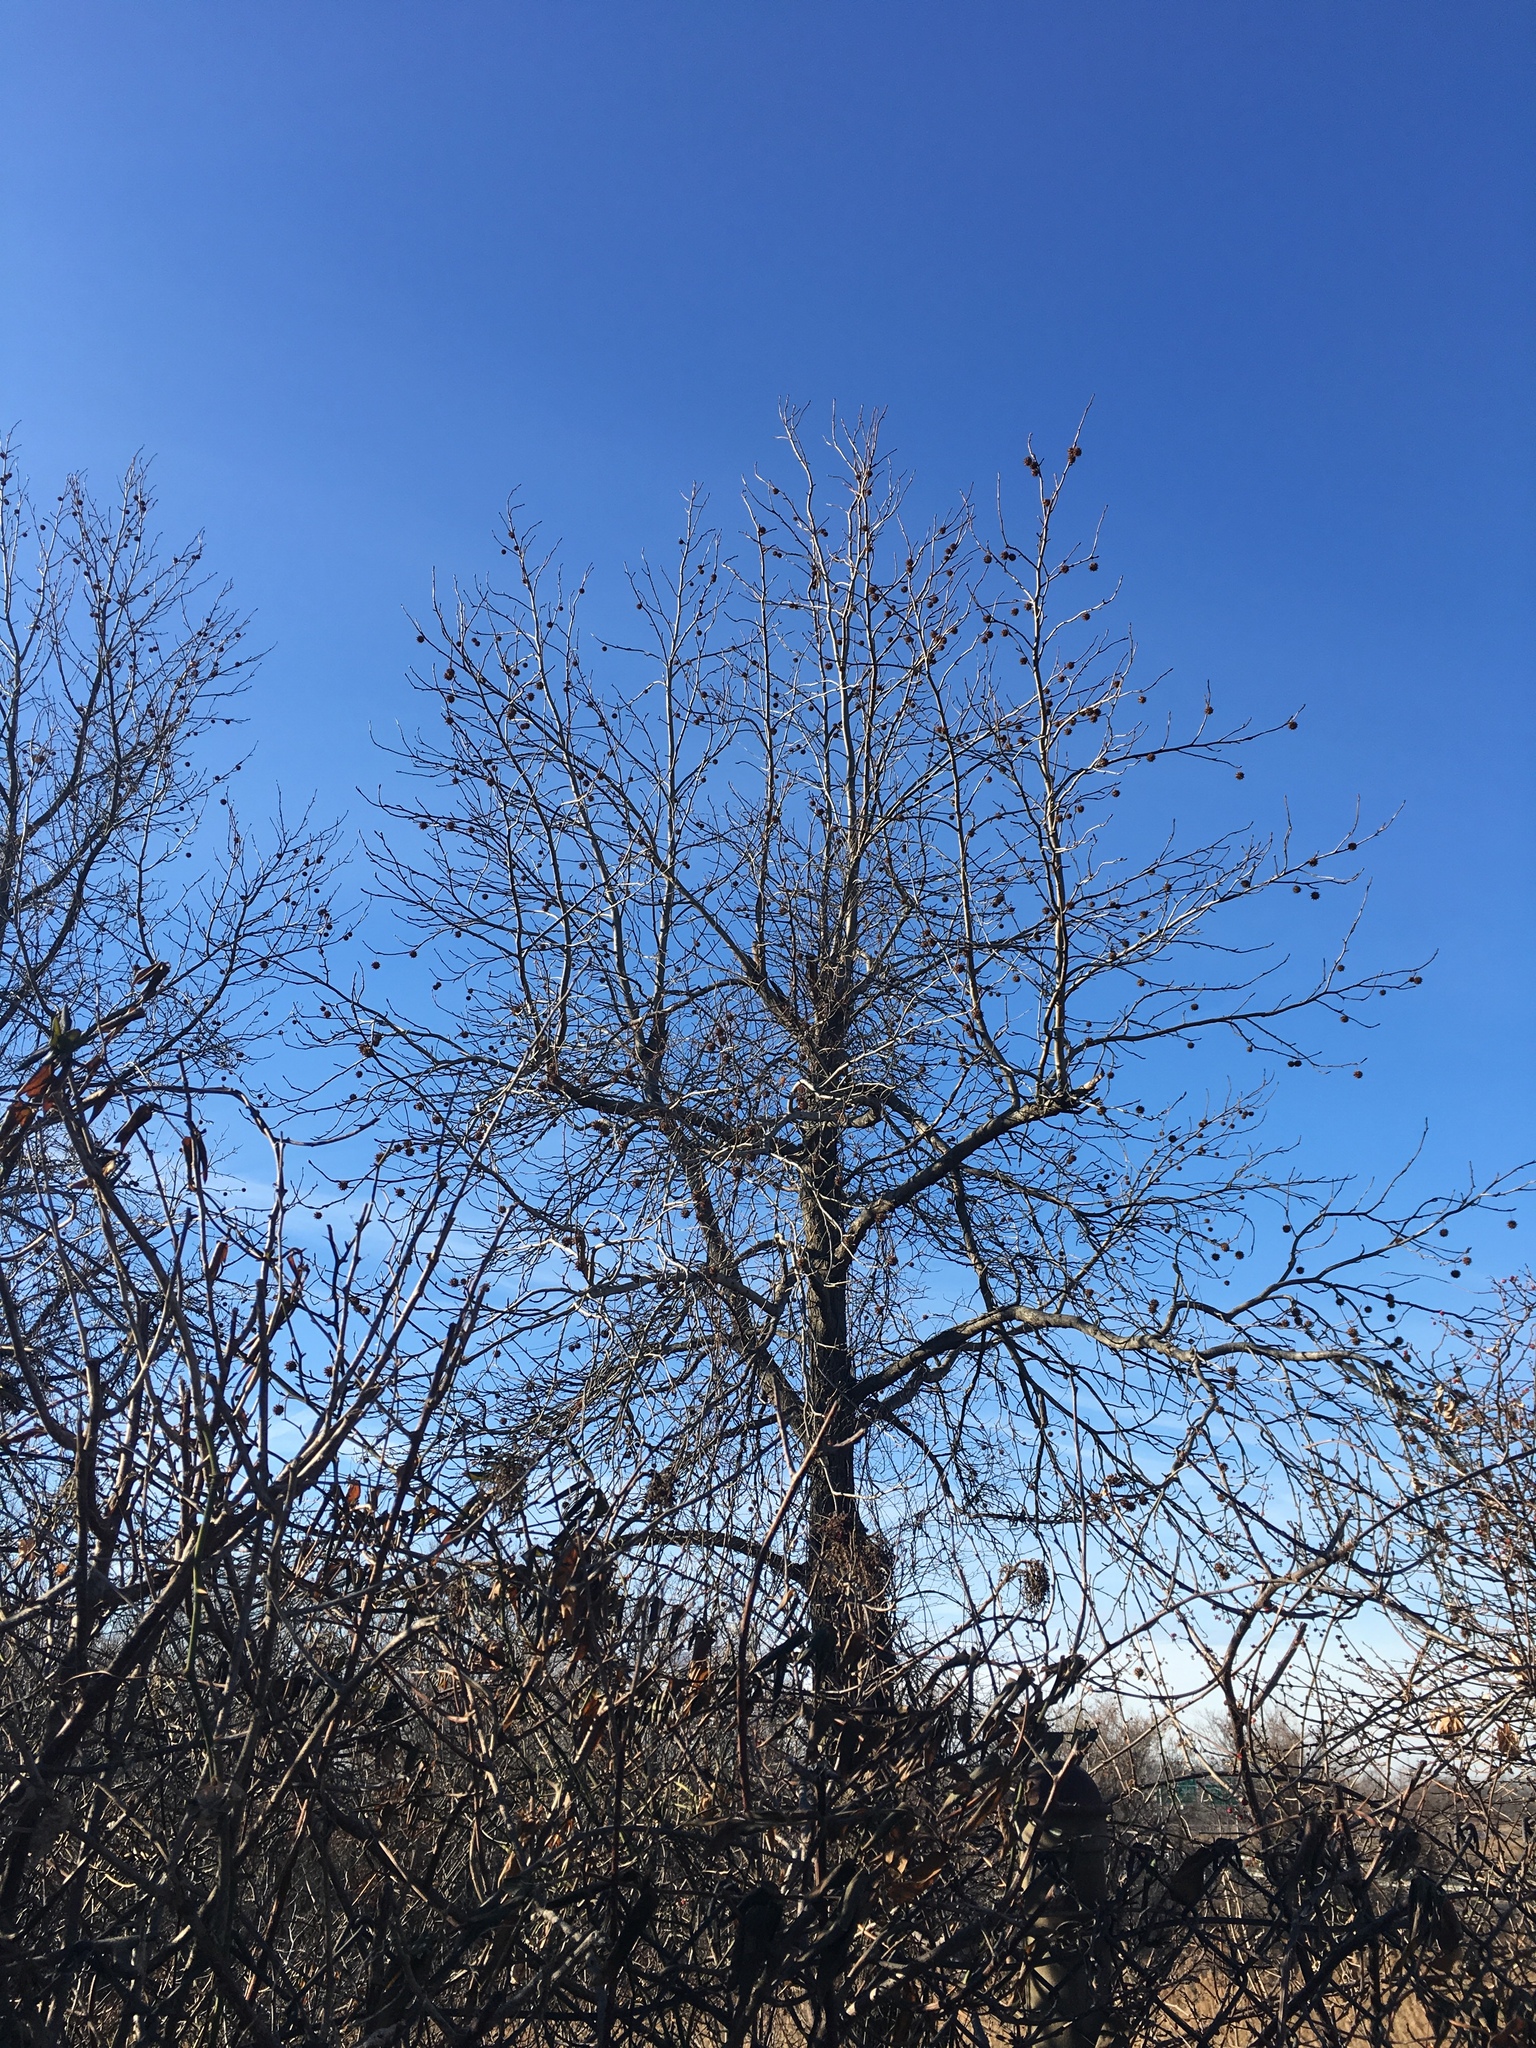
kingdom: Plantae
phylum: Tracheophyta
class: Magnoliopsida
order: Saxifragales
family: Altingiaceae
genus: Liquidambar
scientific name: Liquidambar styraciflua
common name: Sweet gum
